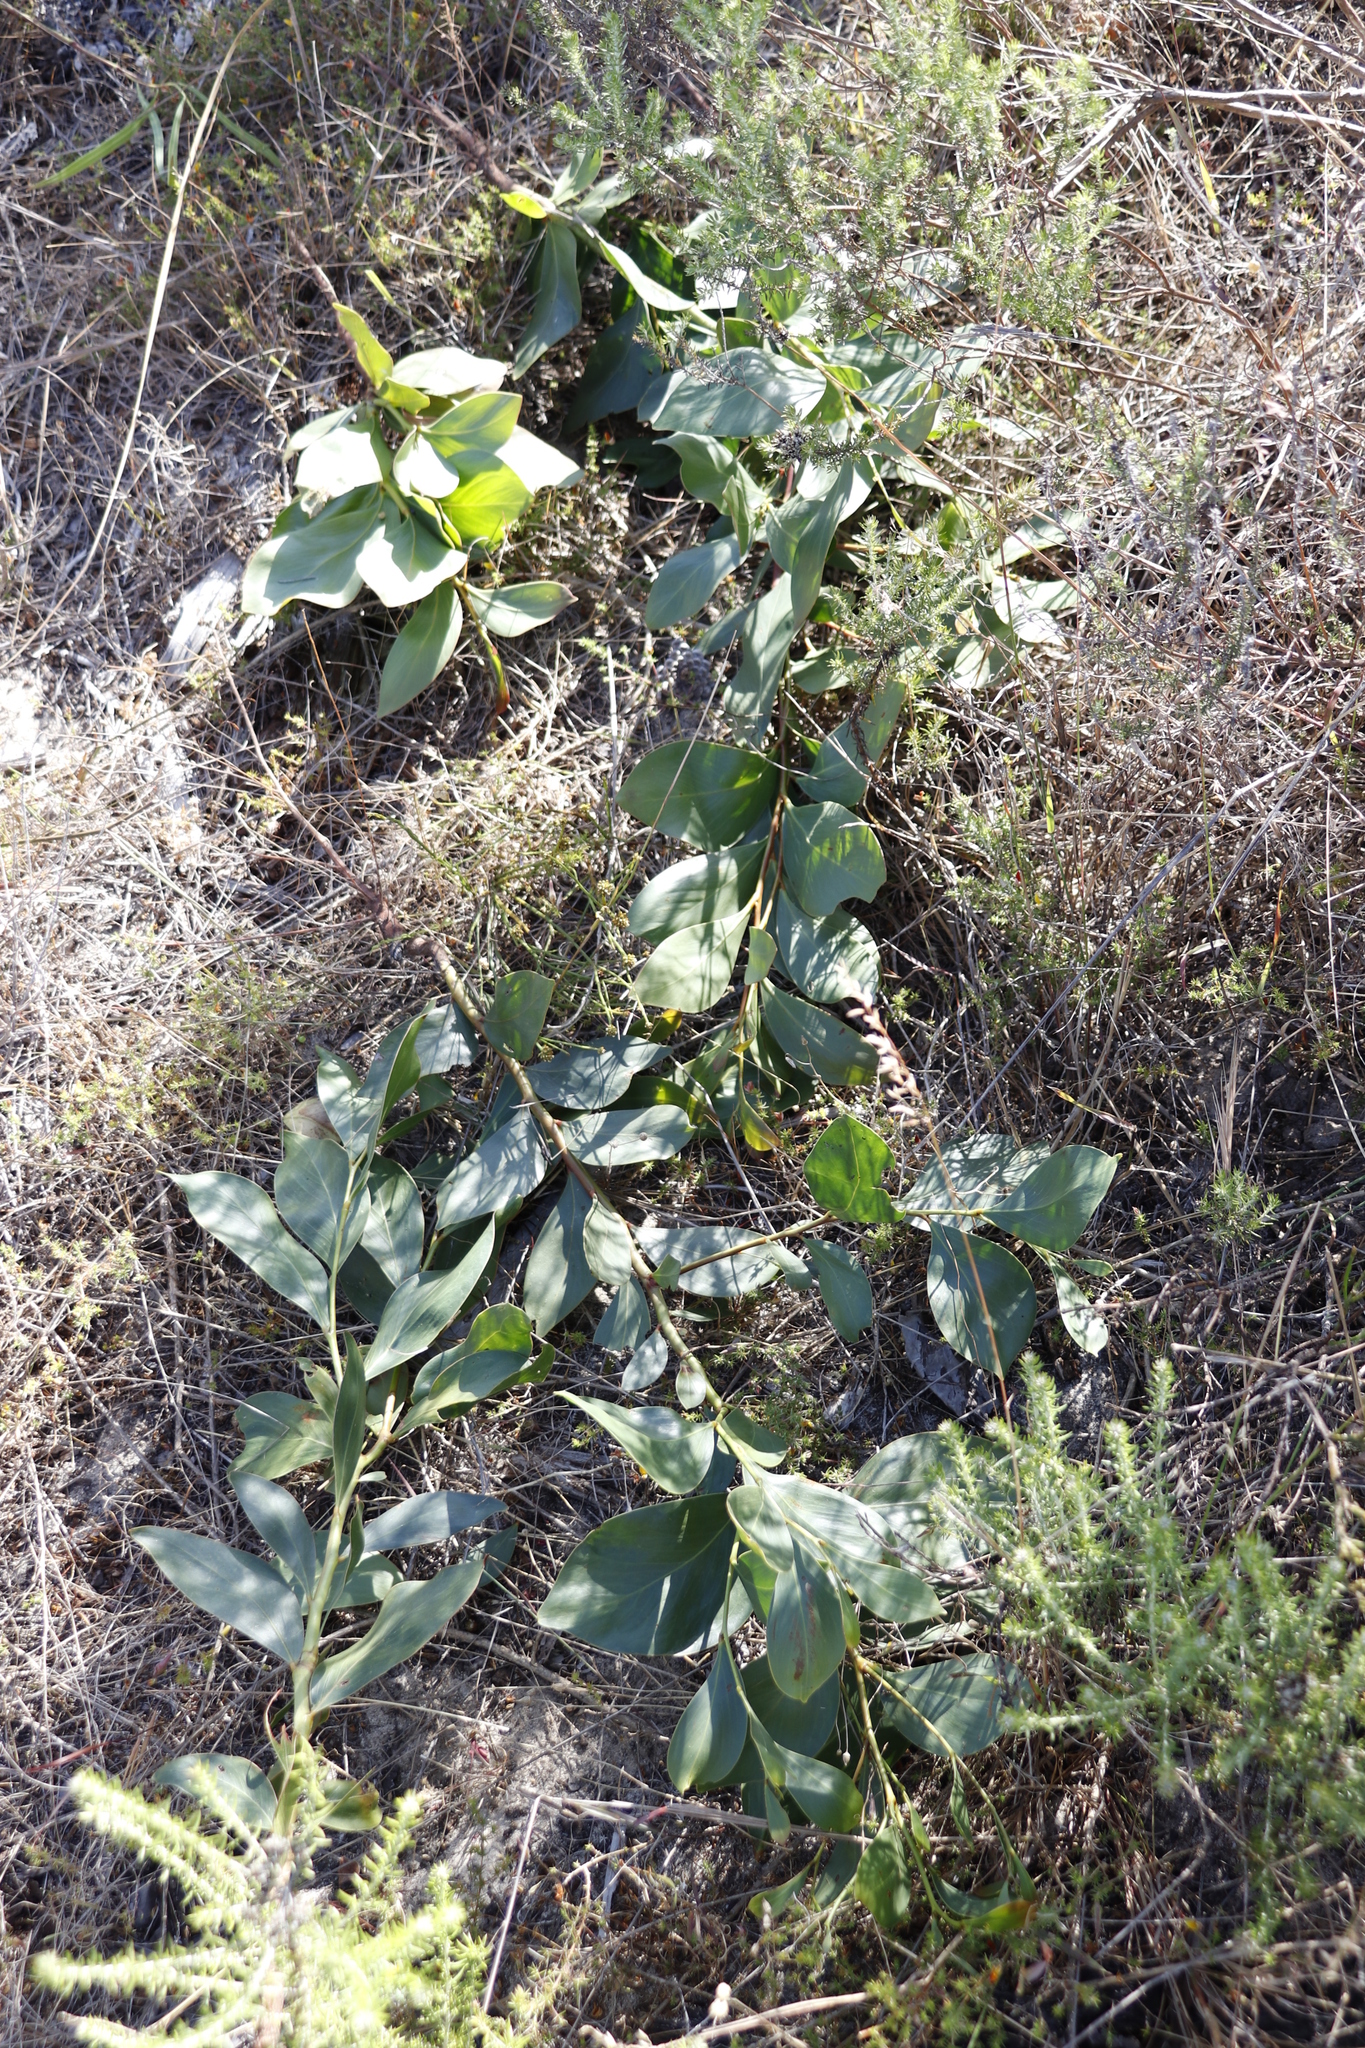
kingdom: Plantae
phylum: Tracheophyta
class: Magnoliopsida
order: Fabales
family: Fabaceae
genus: Acacia
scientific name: Acacia pycnantha
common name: Golden wattle
